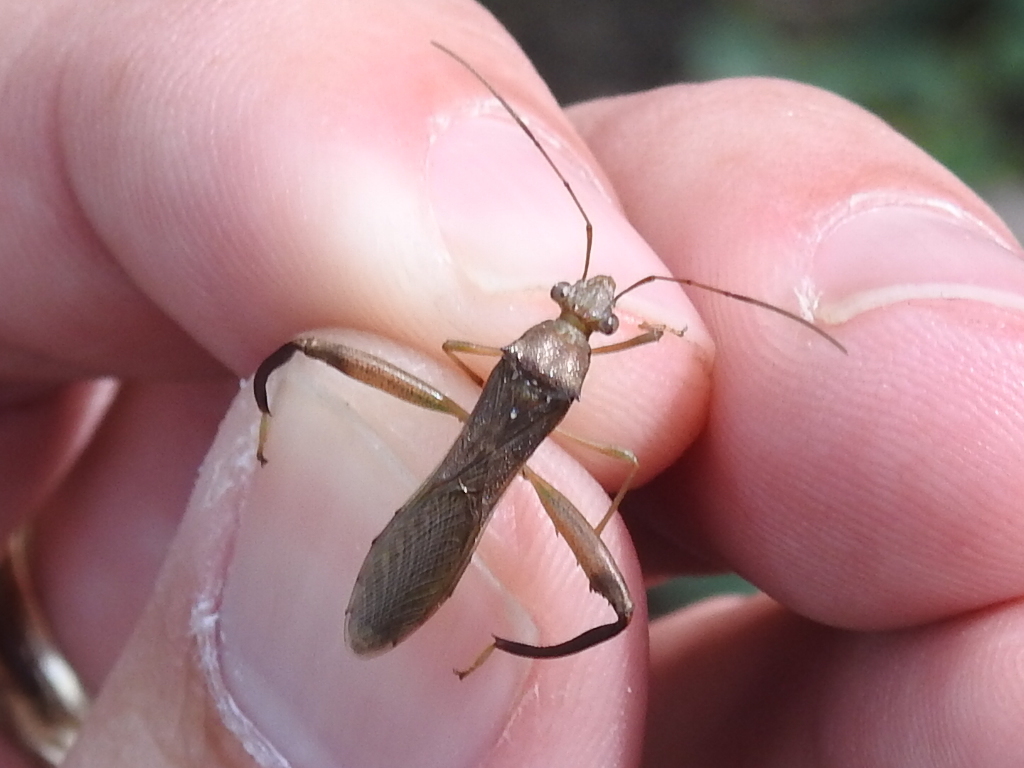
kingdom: Animalia
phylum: Arthropoda
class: Insecta
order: Hemiptera
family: Alydidae
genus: Hyalymenus
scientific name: Hyalymenus tarsatus
